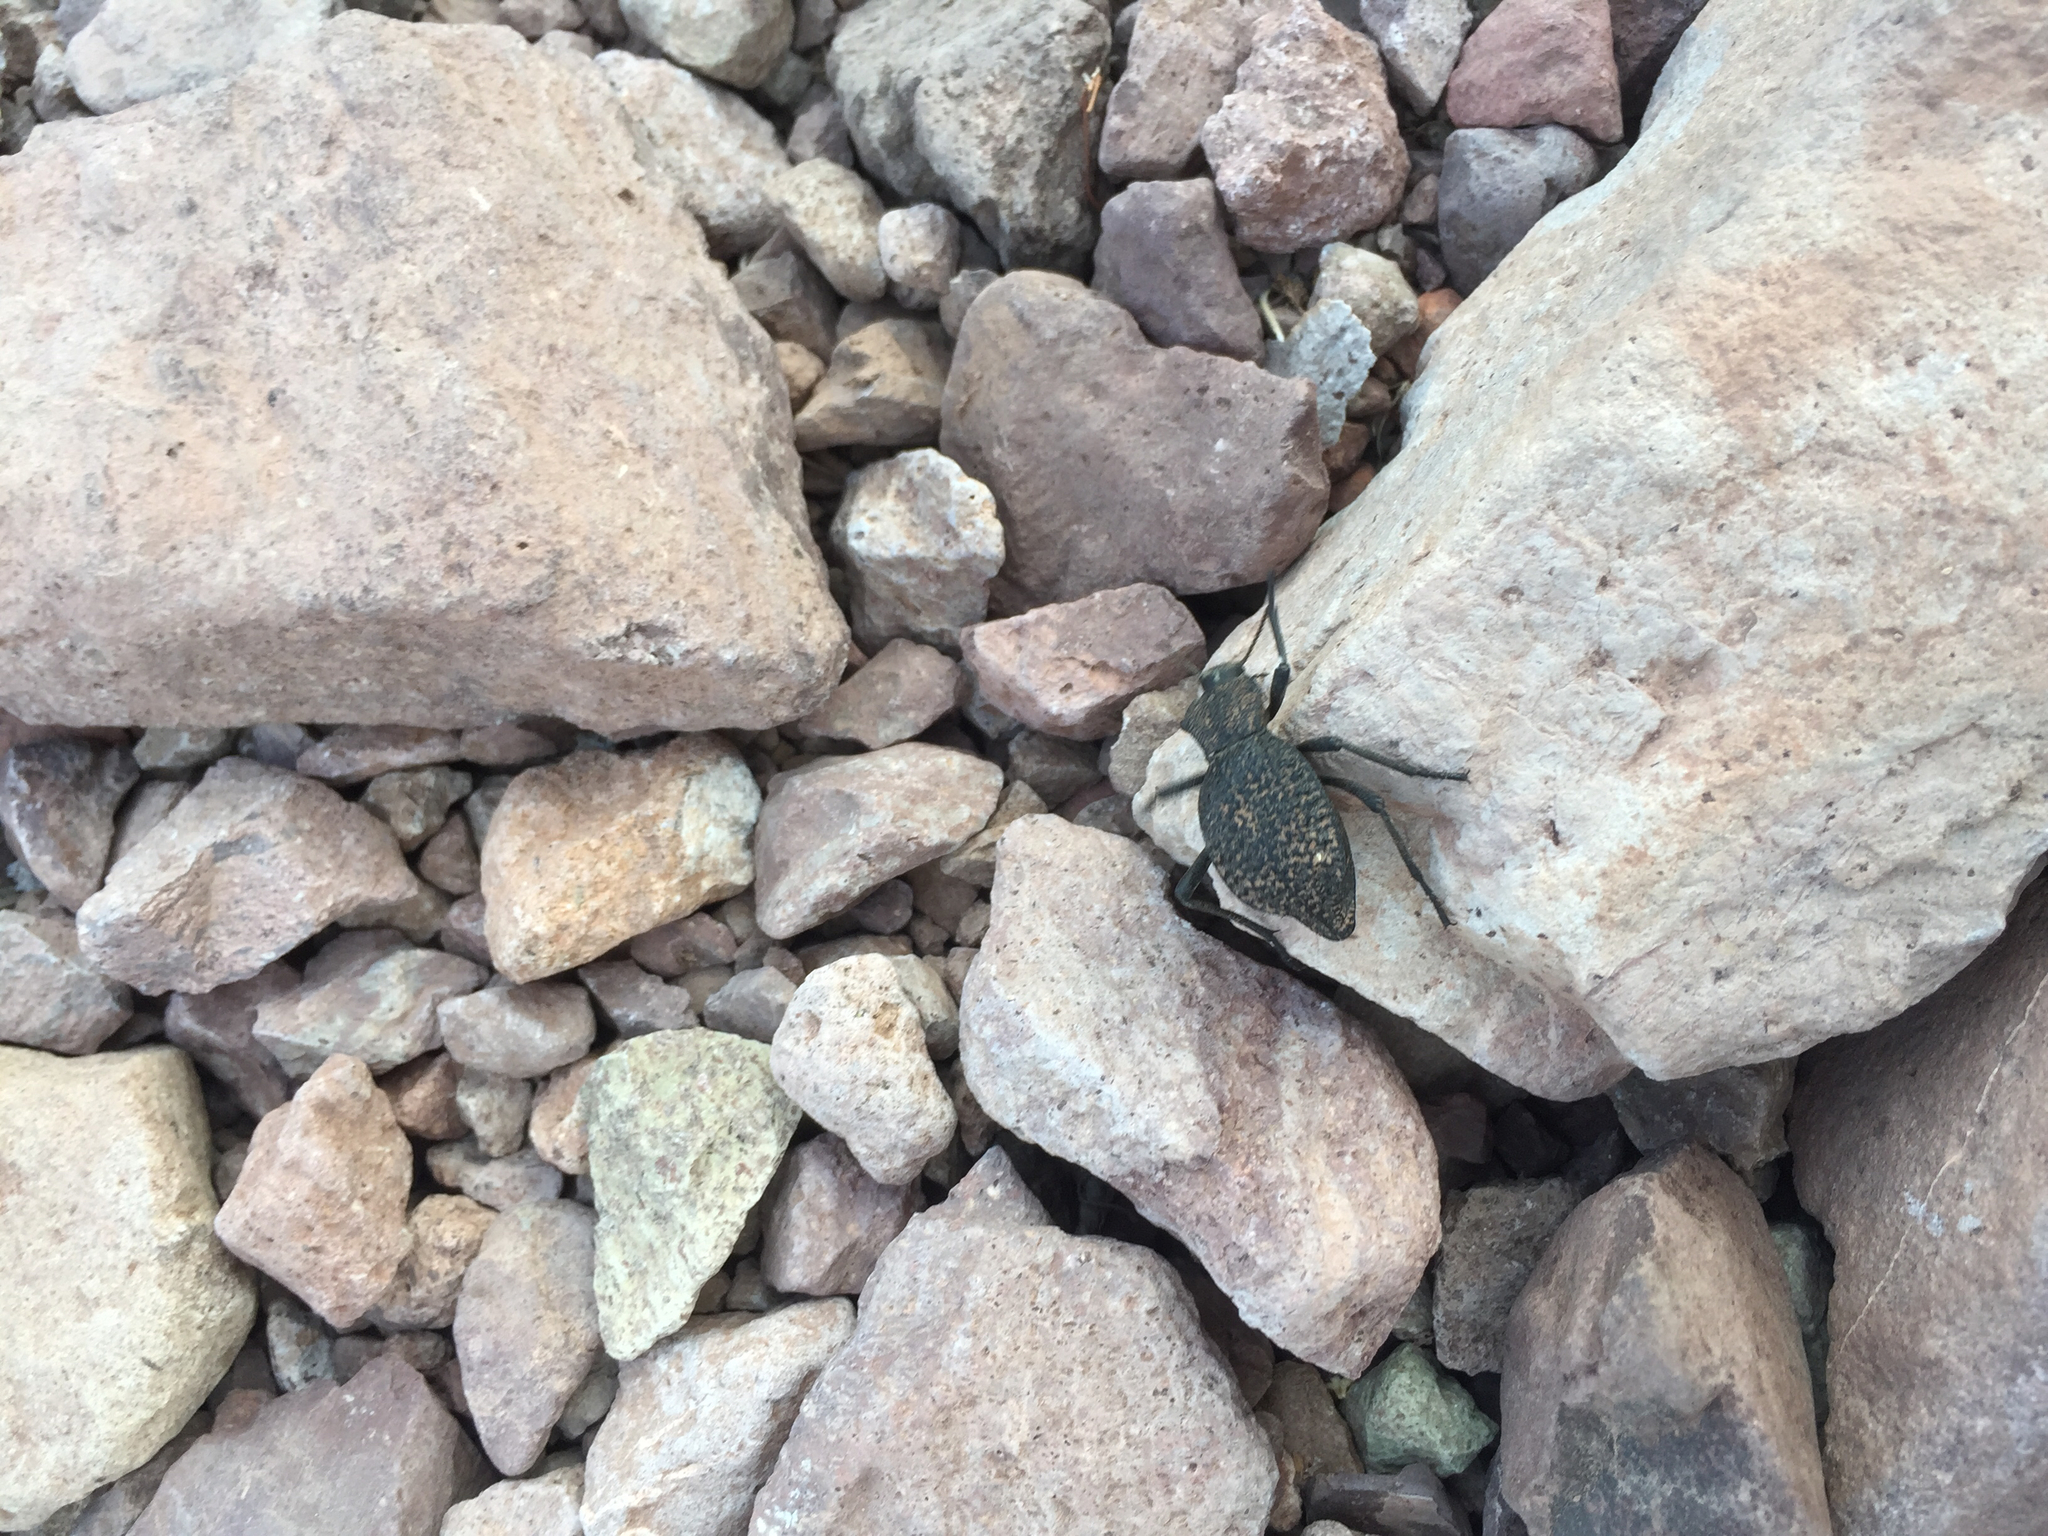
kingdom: Animalia
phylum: Arthropoda
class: Insecta
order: Coleoptera
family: Tenebrionidae
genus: Philolithus
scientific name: Philolithus morbillosus
